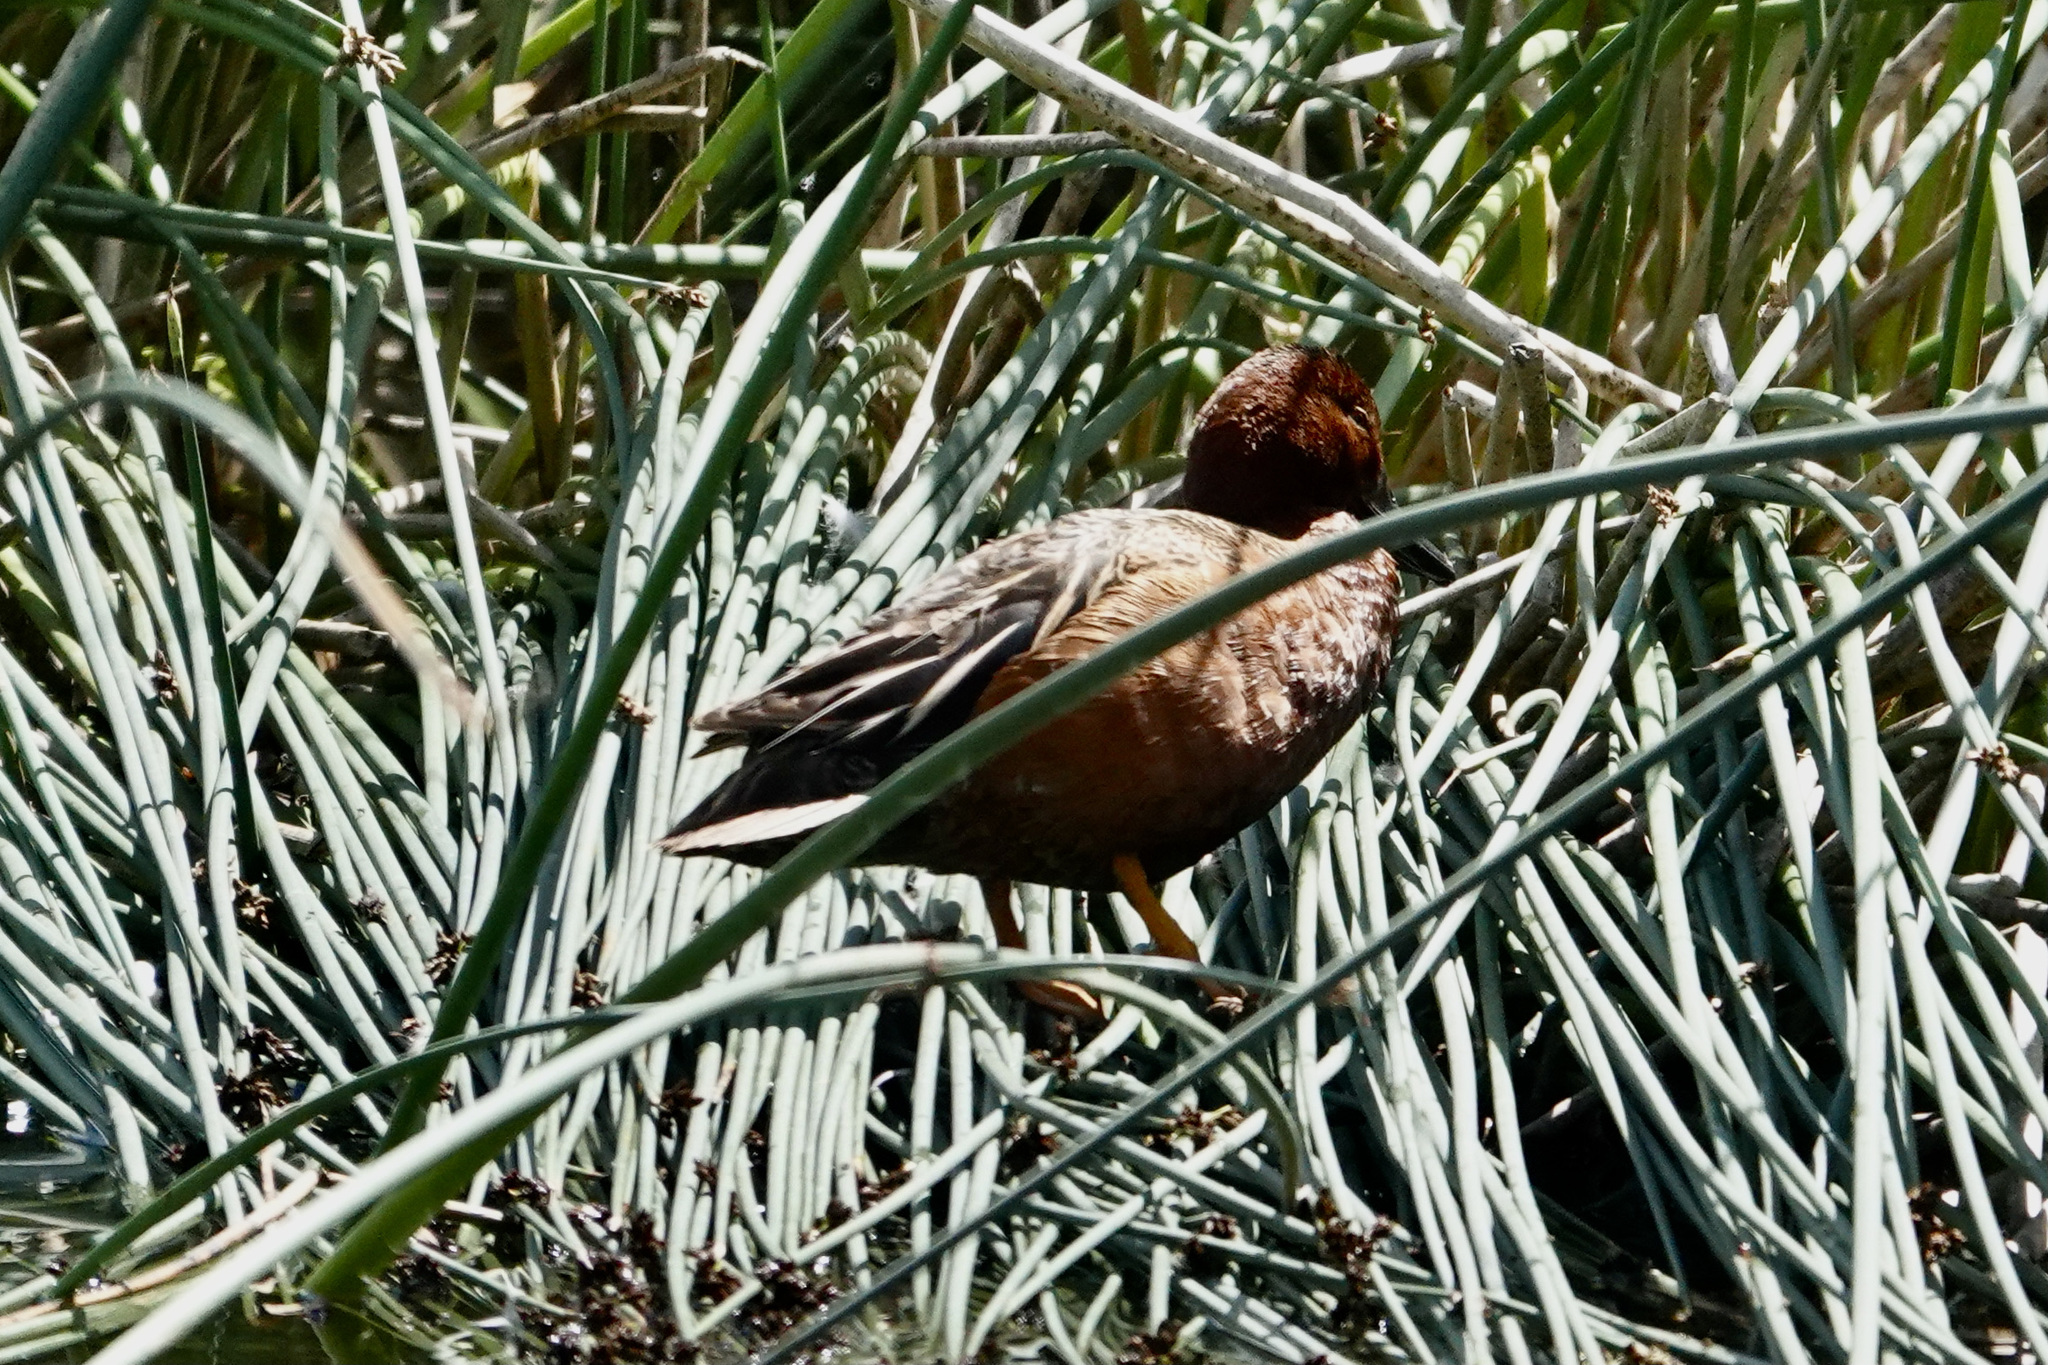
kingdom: Animalia
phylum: Chordata
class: Aves
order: Anseriformes
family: Anatidae
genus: Spatula
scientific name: Spatula cyanoptera
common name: Cinnamon teal
